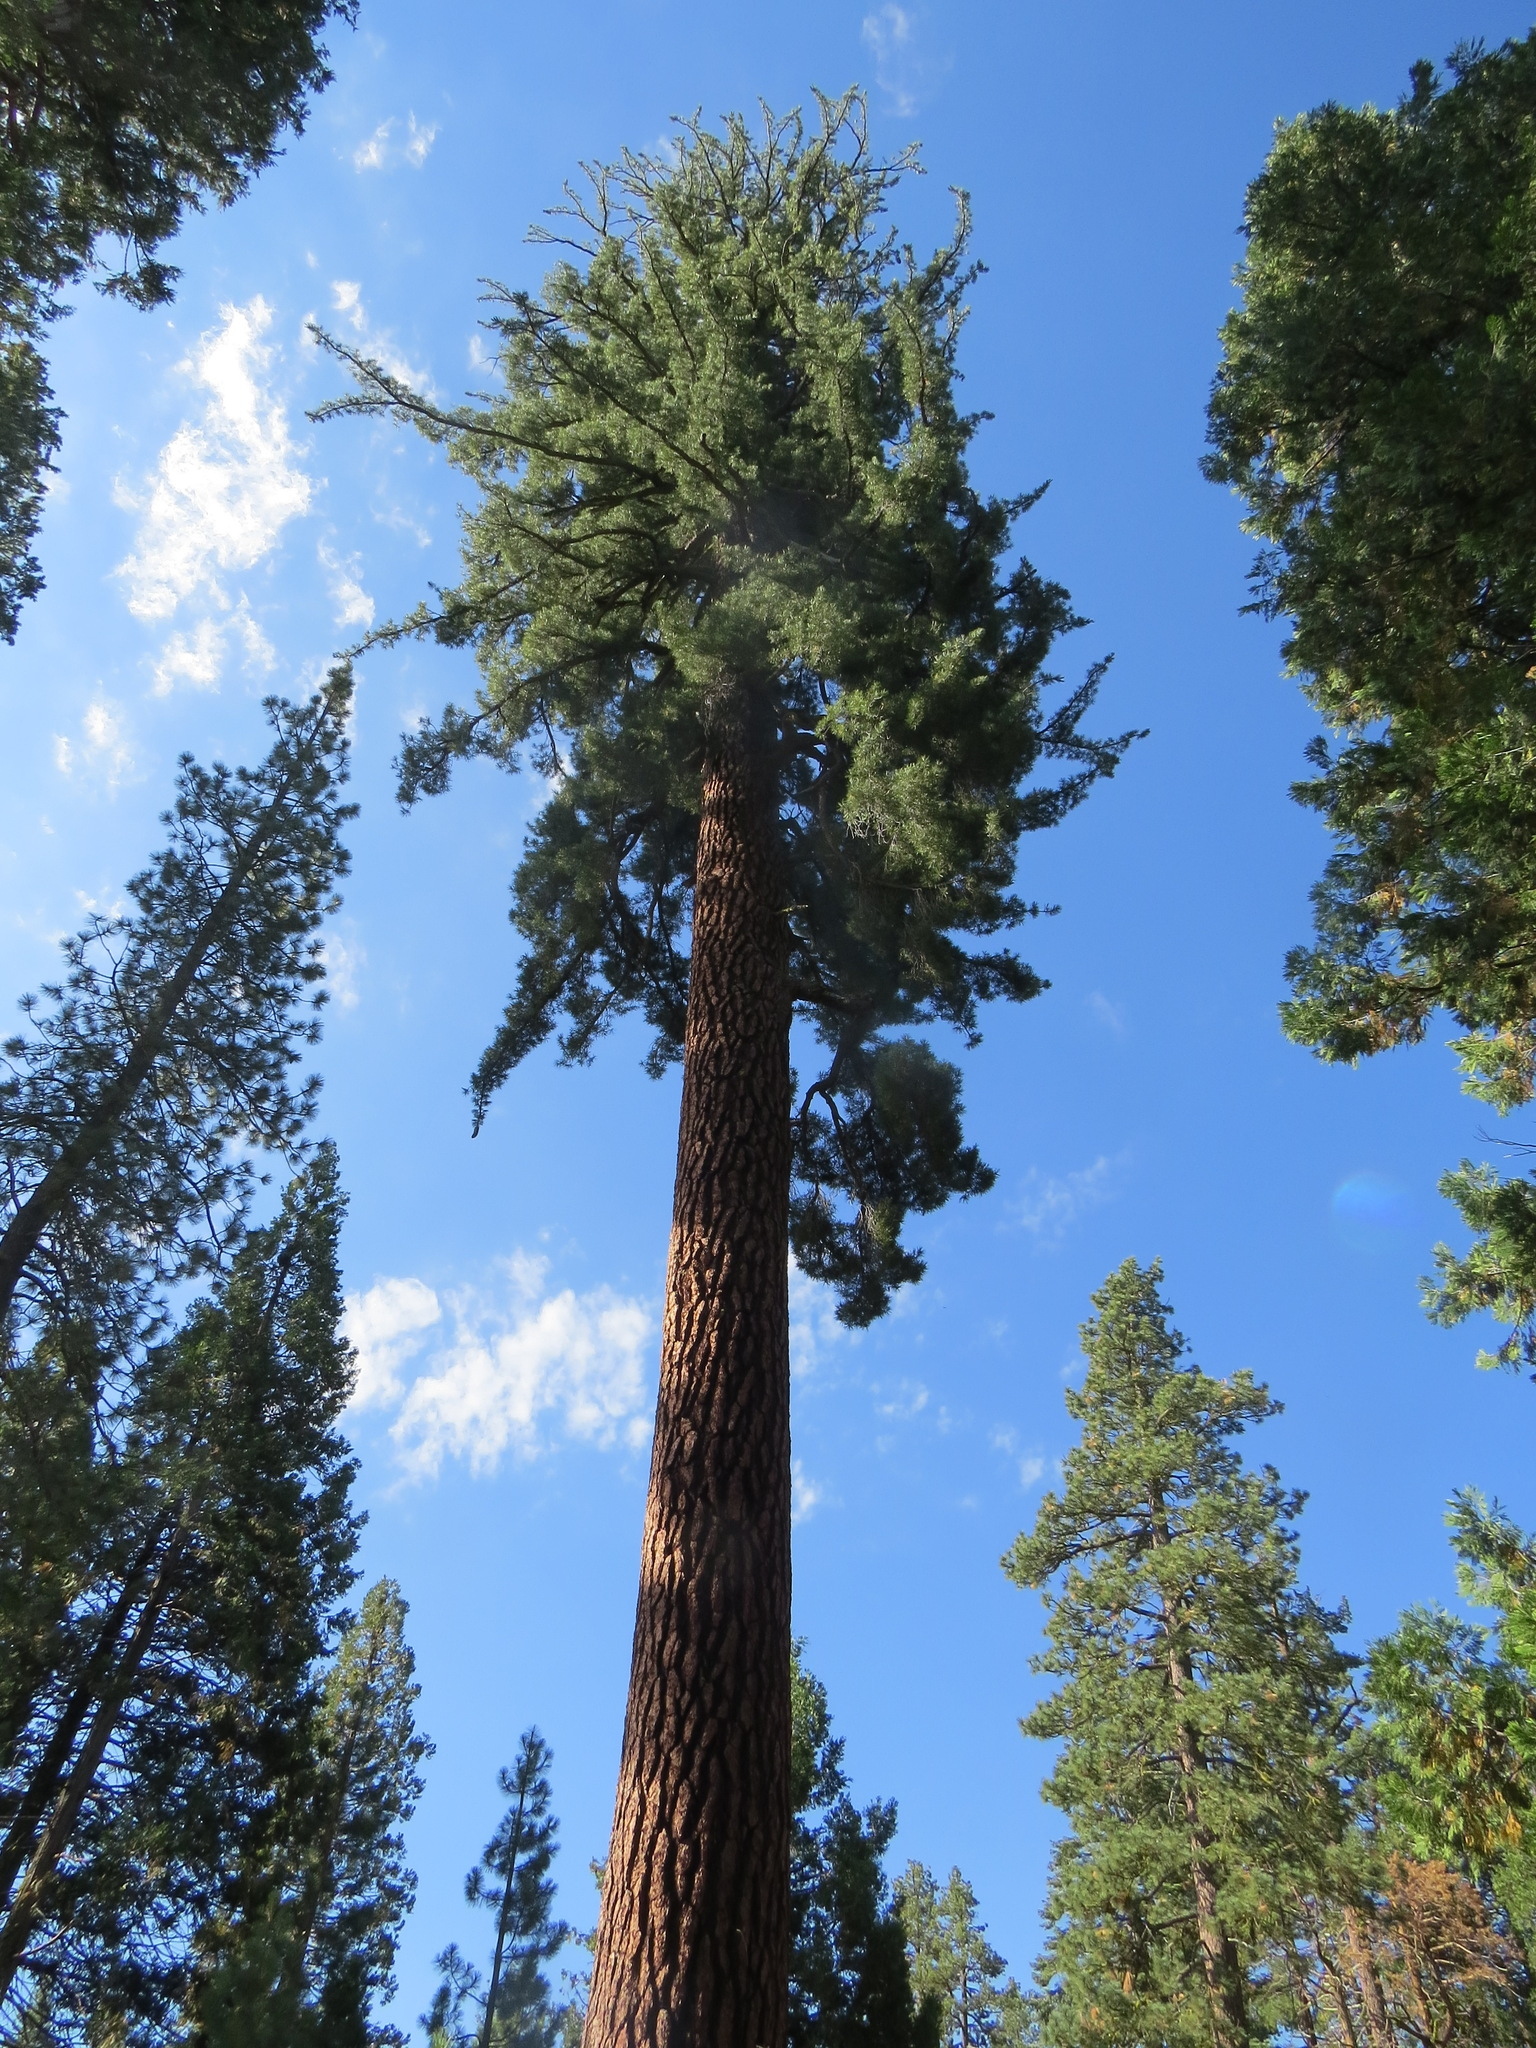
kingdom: Plantae
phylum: Tracheophyta
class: Pinopsida
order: Pinales
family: Pinaceae
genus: Pinus
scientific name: Pinus lambertiana
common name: Sugar pine
